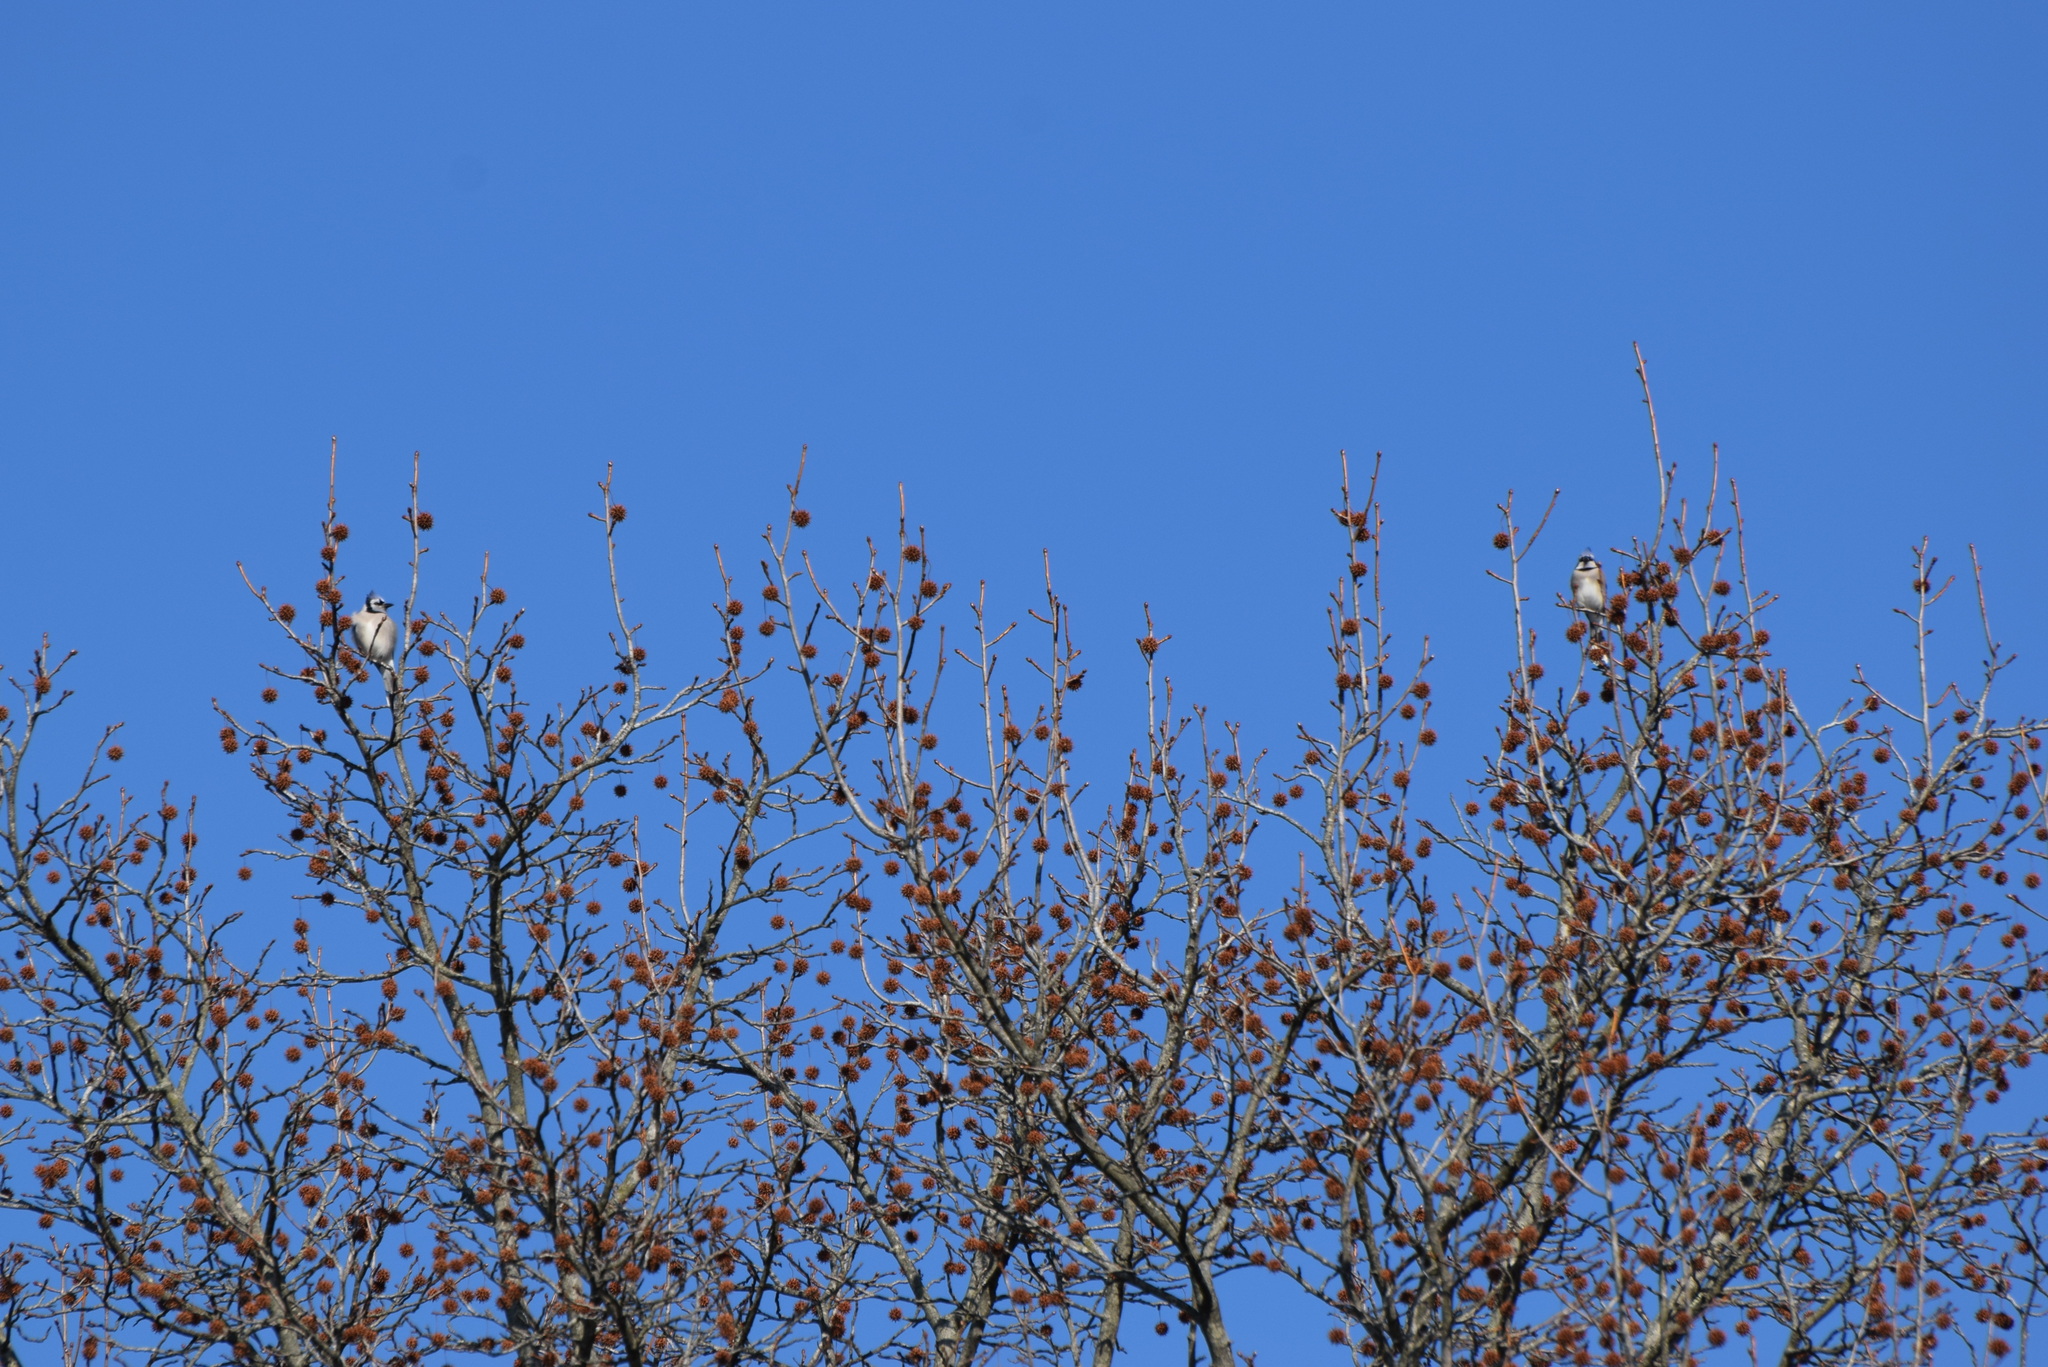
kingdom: Animalia
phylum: Chordata
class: Aves
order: Passeriformes
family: Corvidae
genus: Cyanocitta
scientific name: Cyanocitta cristata
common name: Blue jay
